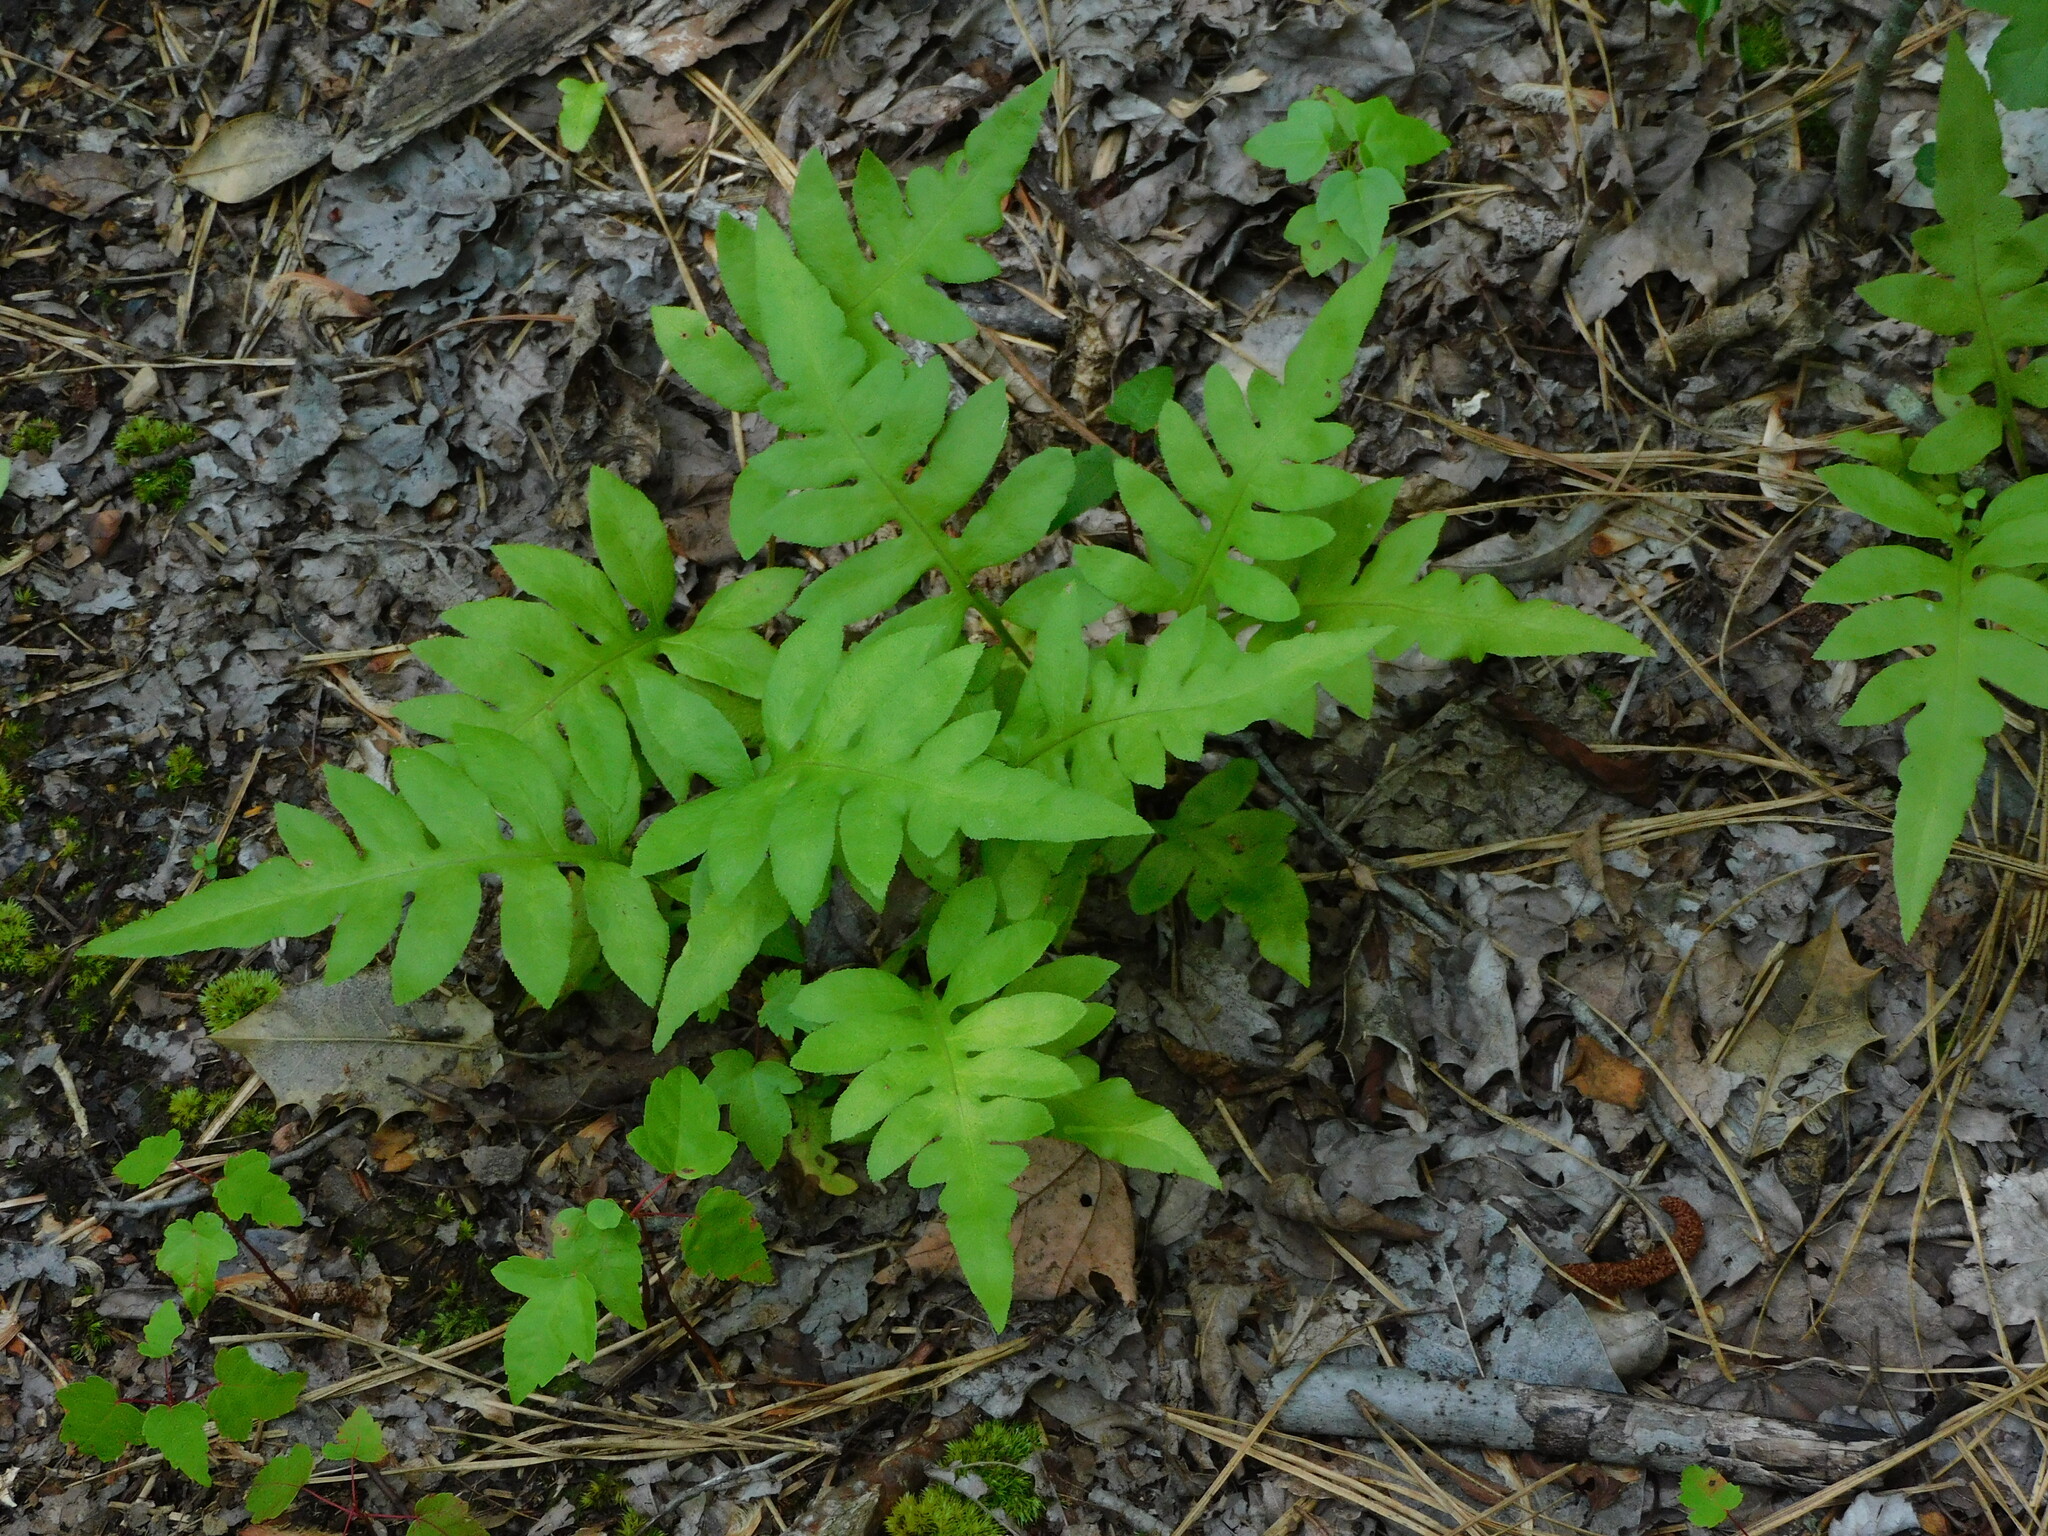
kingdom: Plantae
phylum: Tracheophyta
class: Polypodiopsida
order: Polypodiales
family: Blechnaceae
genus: Lorinseria
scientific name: Lorinseria areolata
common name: Dwarf chain fern
